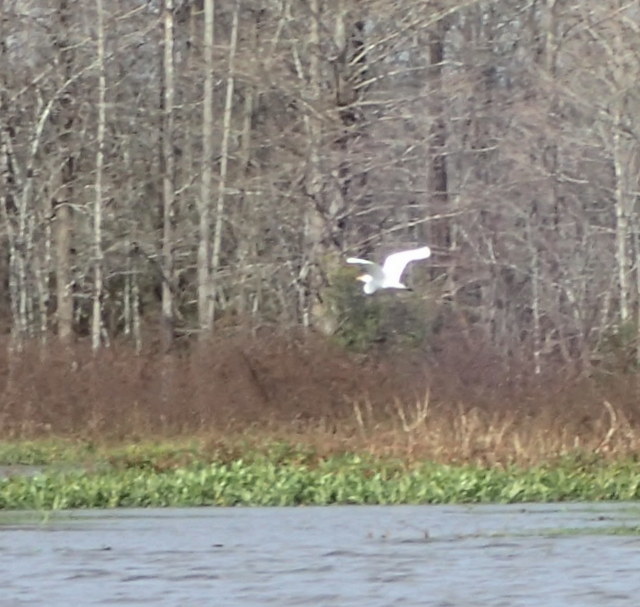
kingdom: Animalia
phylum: Chordata
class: Aves
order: Pelecaniformes
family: Ardeidae
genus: Ardea
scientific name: Ardea alba
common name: Great egret
